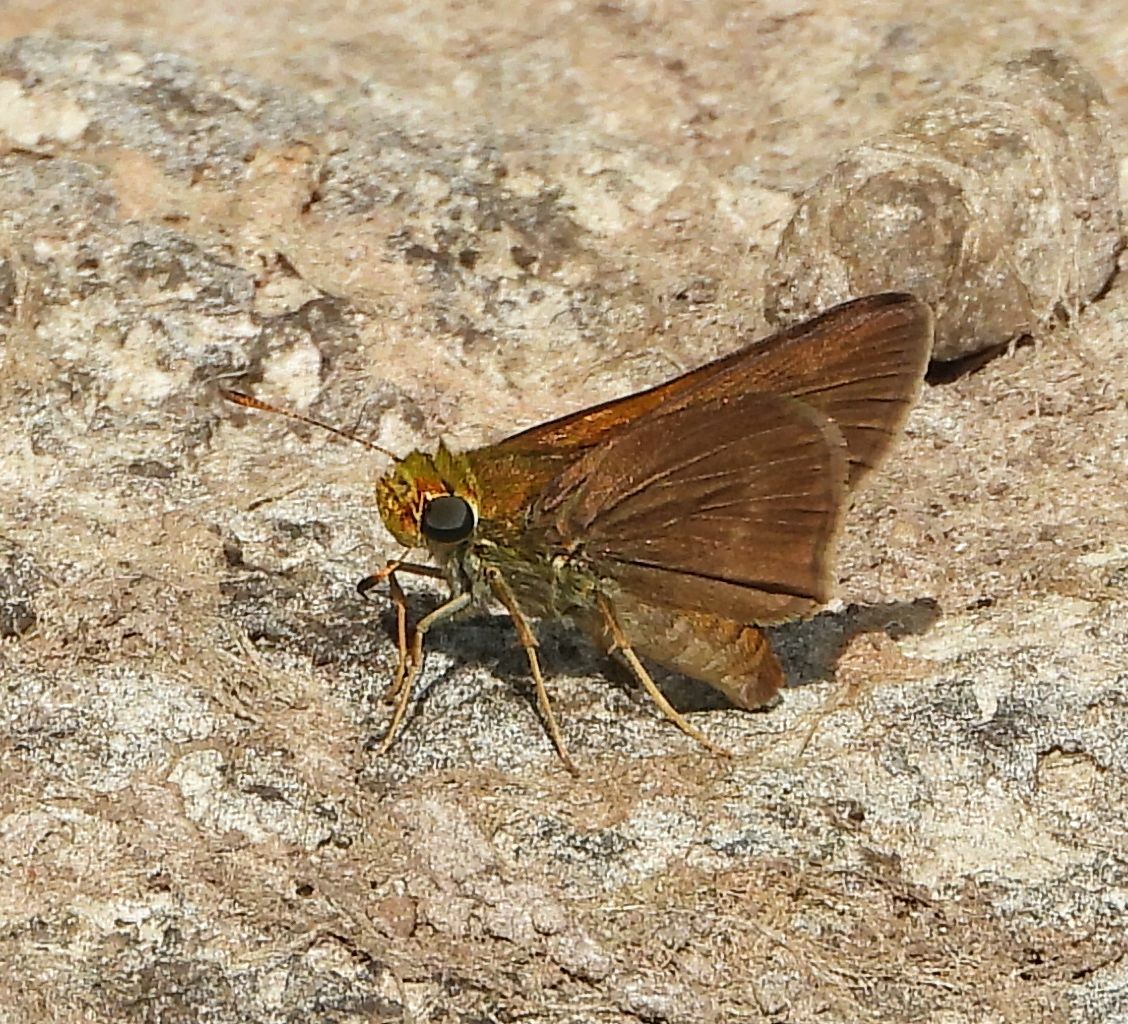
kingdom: Animalia
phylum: Arthropoda
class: Insecta
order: Lepidoptera
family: Hesperiidae
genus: Euphyes
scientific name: Euphyes vestris
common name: Dun skipper
